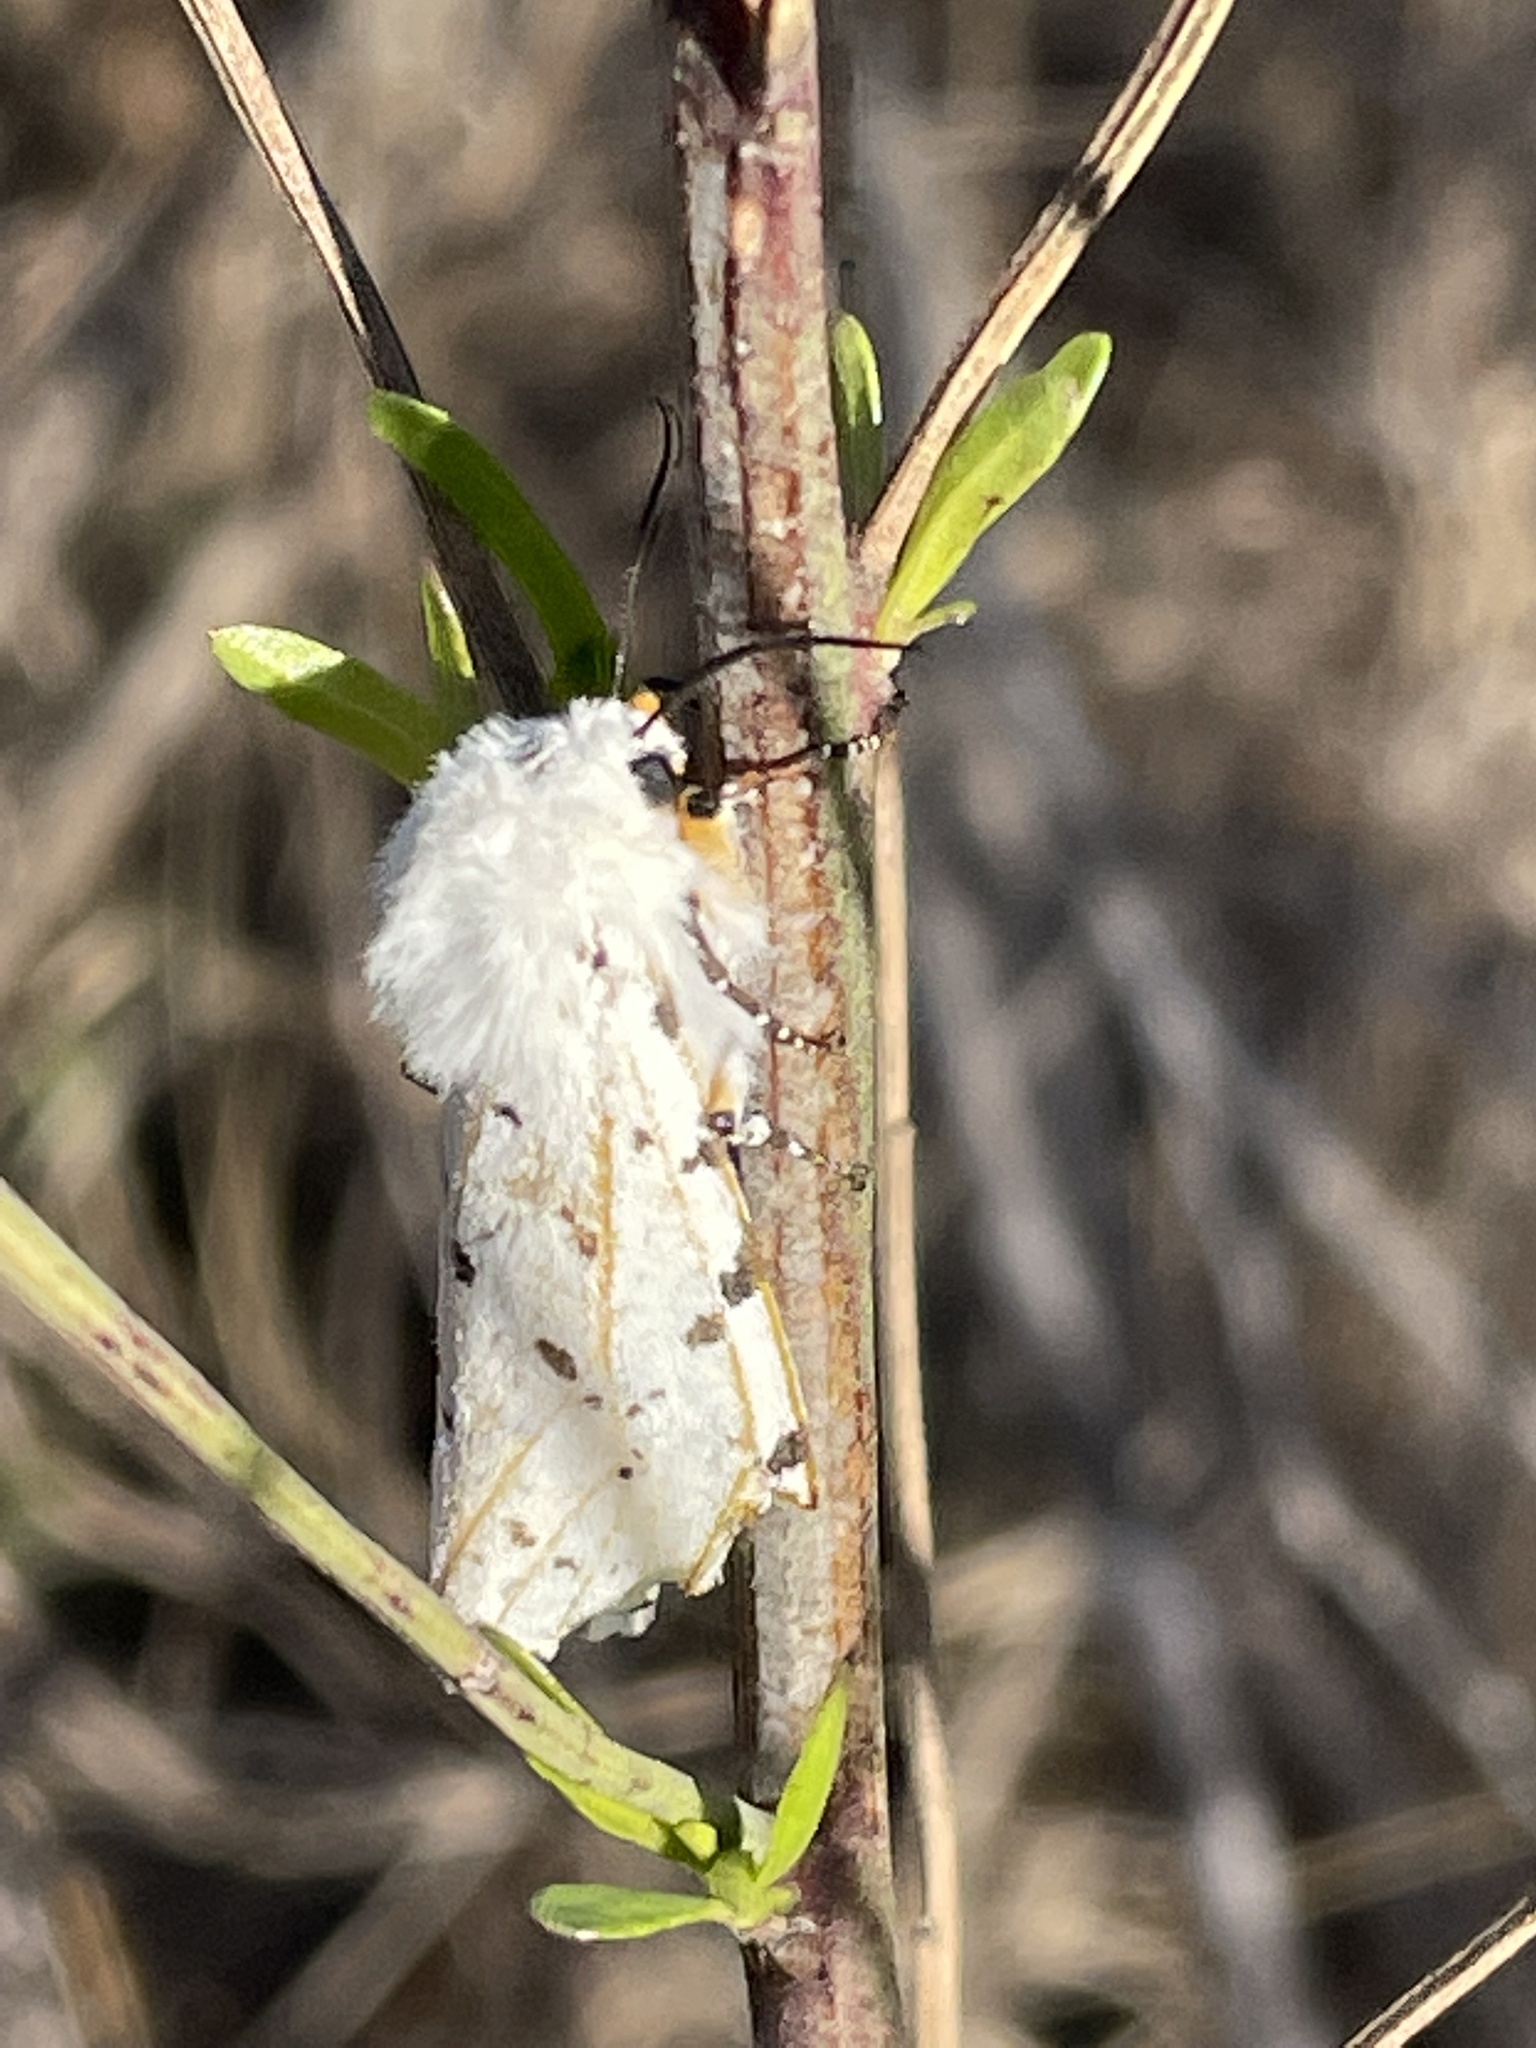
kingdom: Animalia
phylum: Arthropoda
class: Insecta
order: Lepidoptera
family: Erebidae
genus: Estigmene
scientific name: Estigmene acrea
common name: Salt marsh moth
